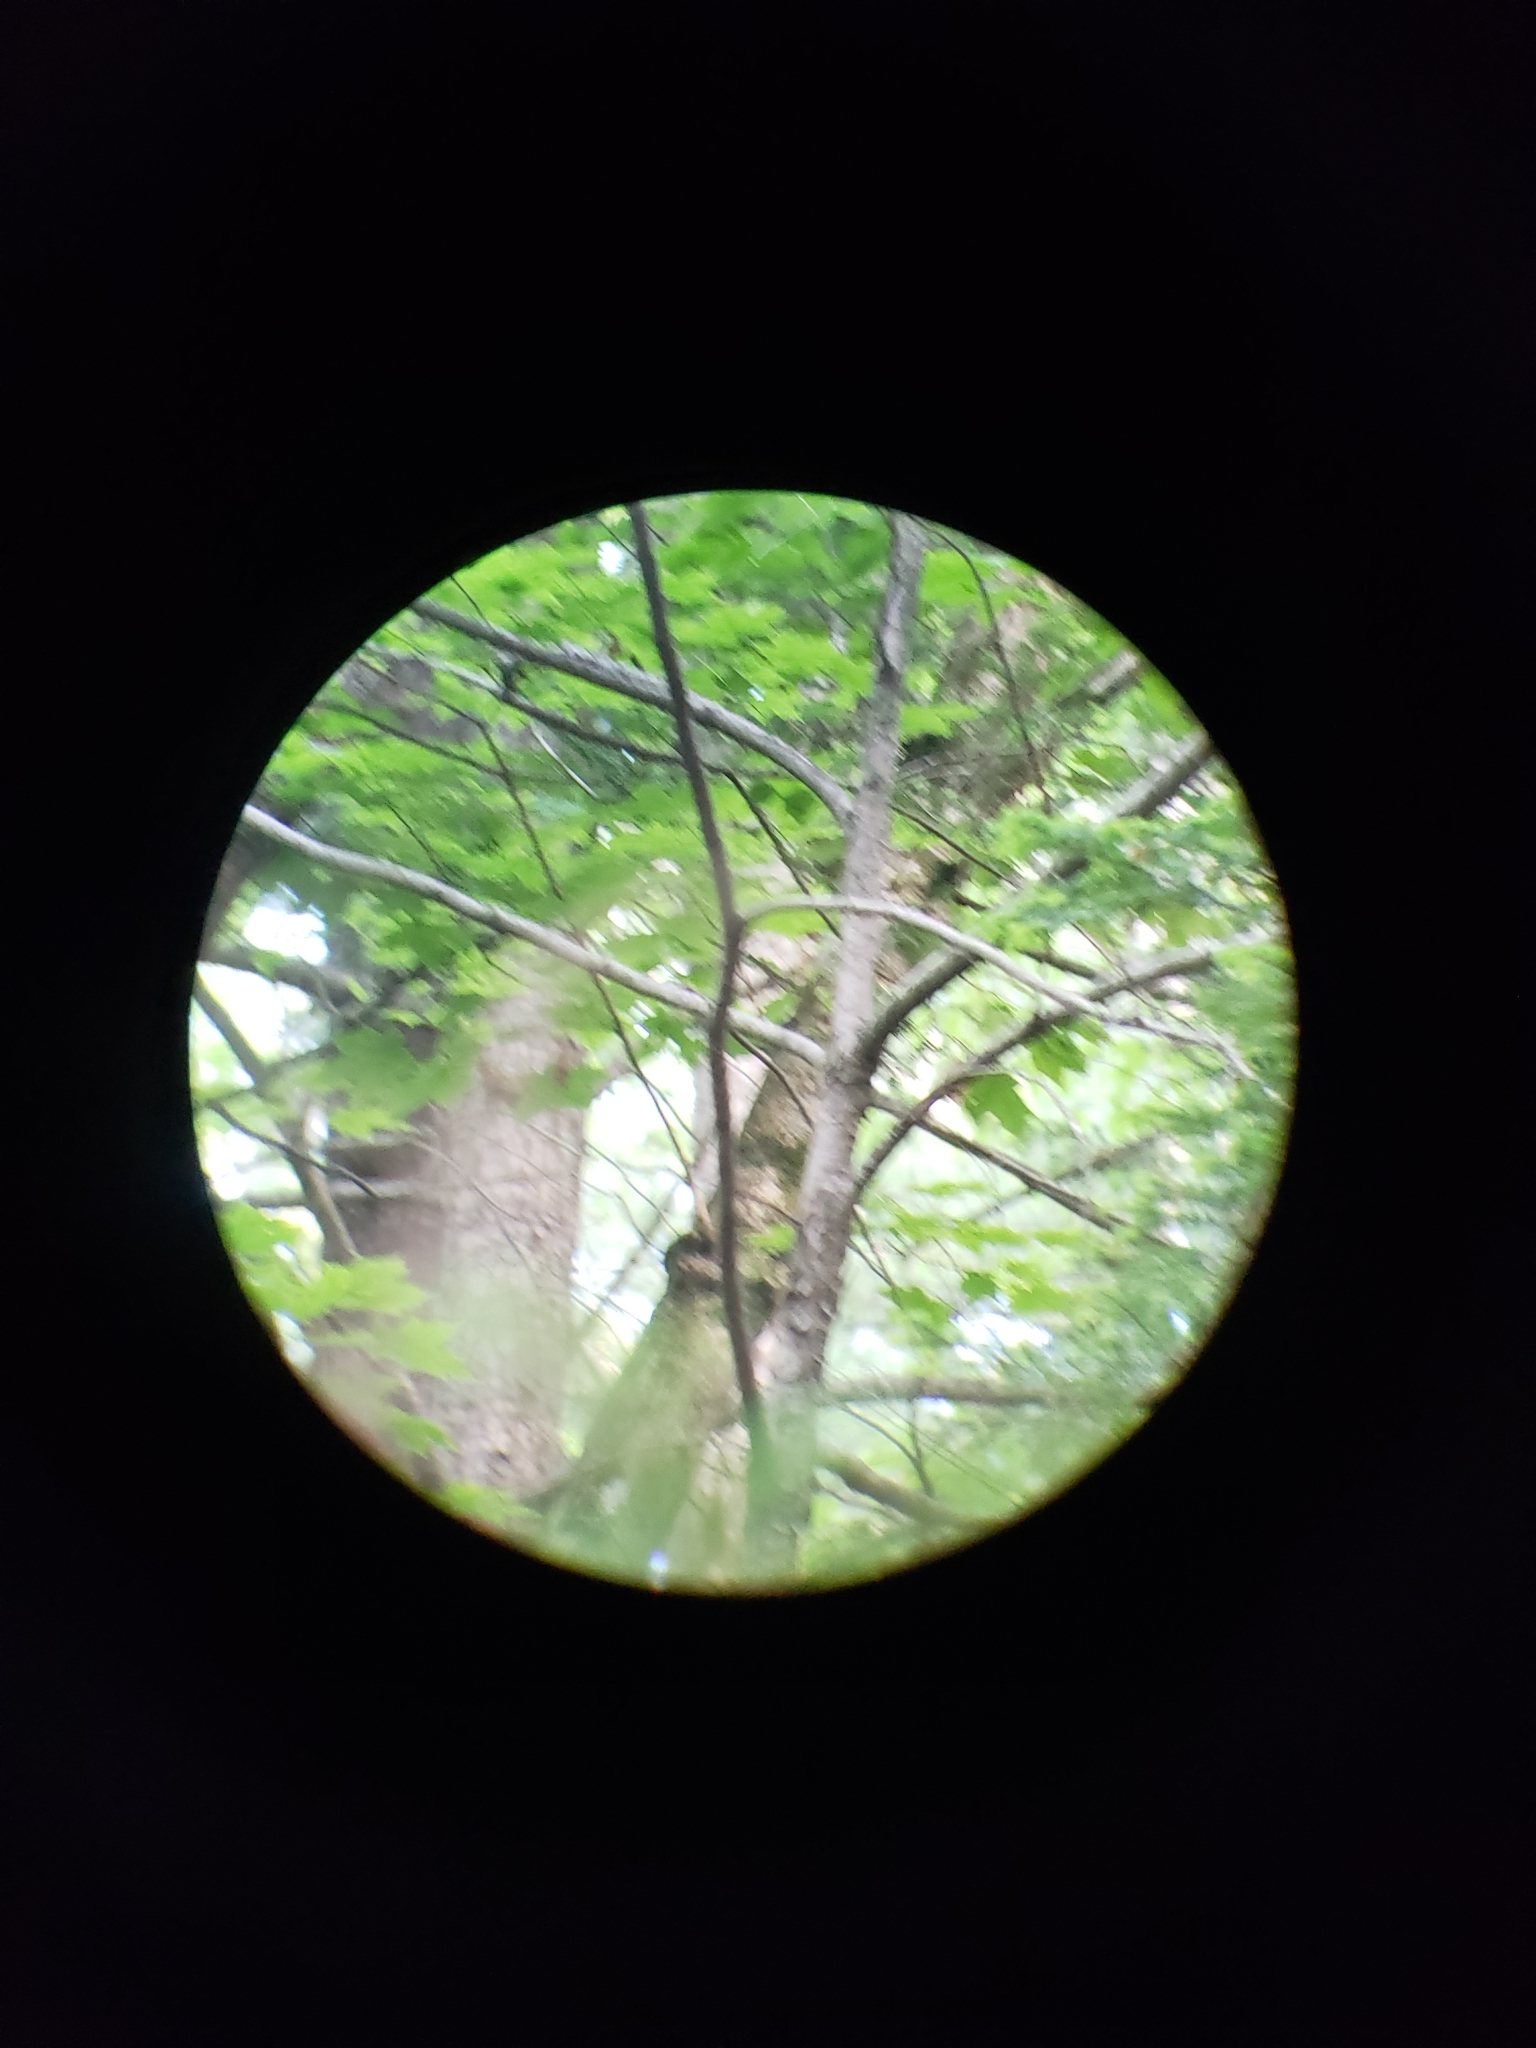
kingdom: Animalia
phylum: Chordata
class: Aves
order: Passeriformes
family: Parulidae
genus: Seiurus
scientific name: Seiurus aurocapilla
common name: Ovenbird
